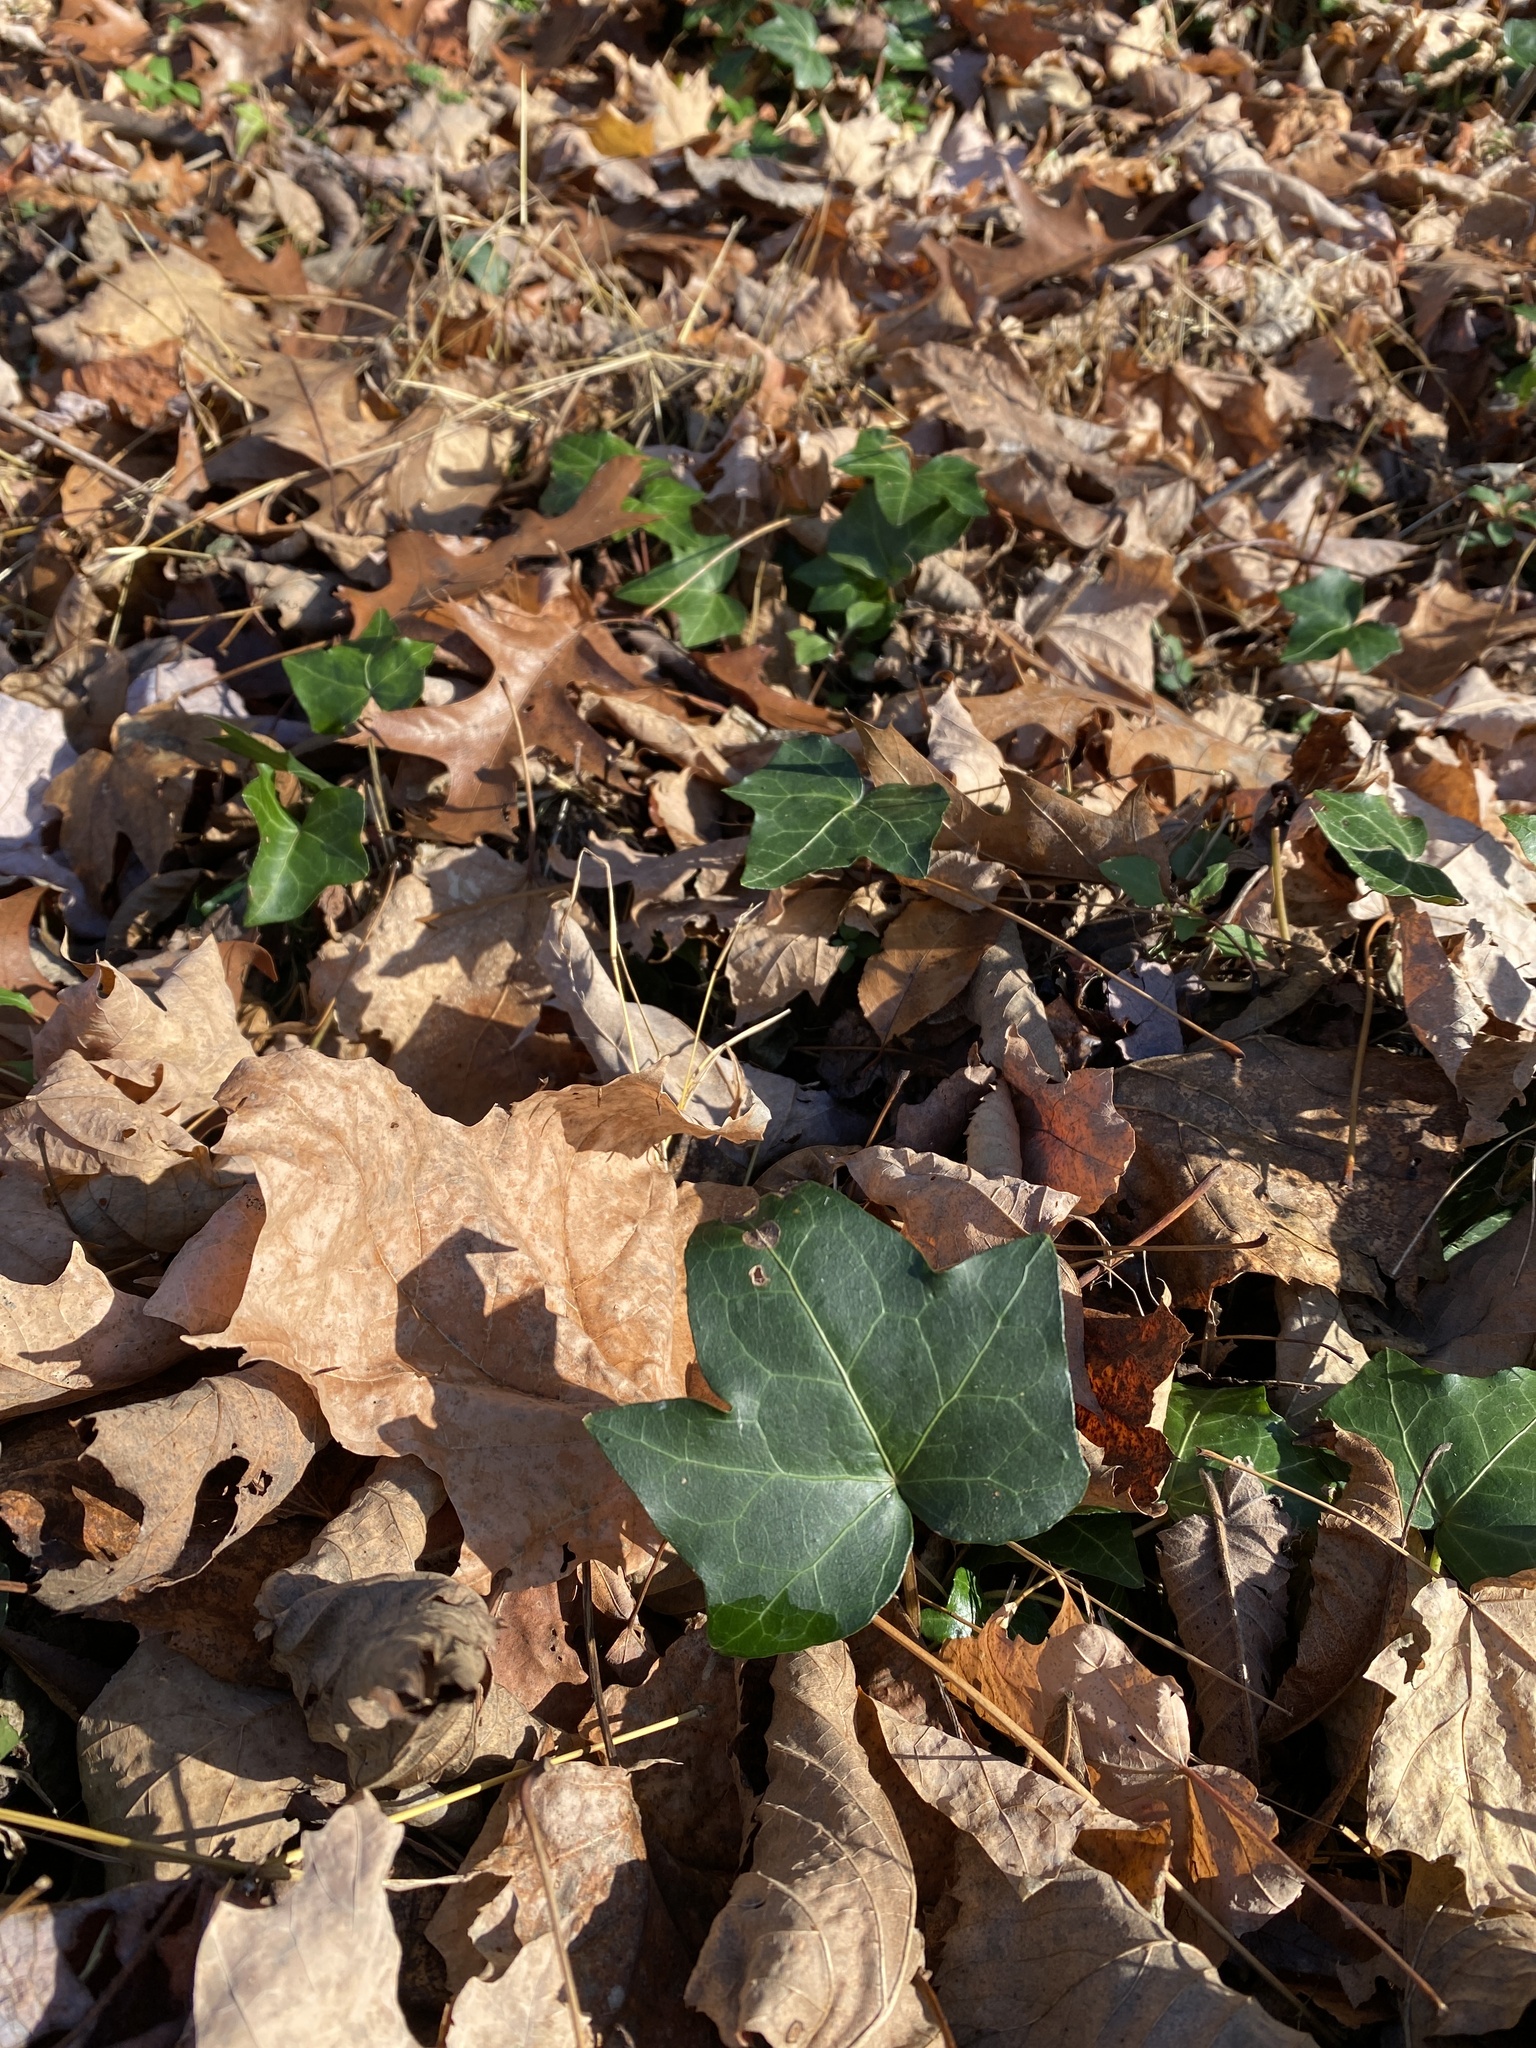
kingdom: Plantae
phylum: Tracheophyta
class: Magnoliopsida
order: Apiales
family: Araliaceae
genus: Hedera
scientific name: Hedera helix
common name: Ivy
